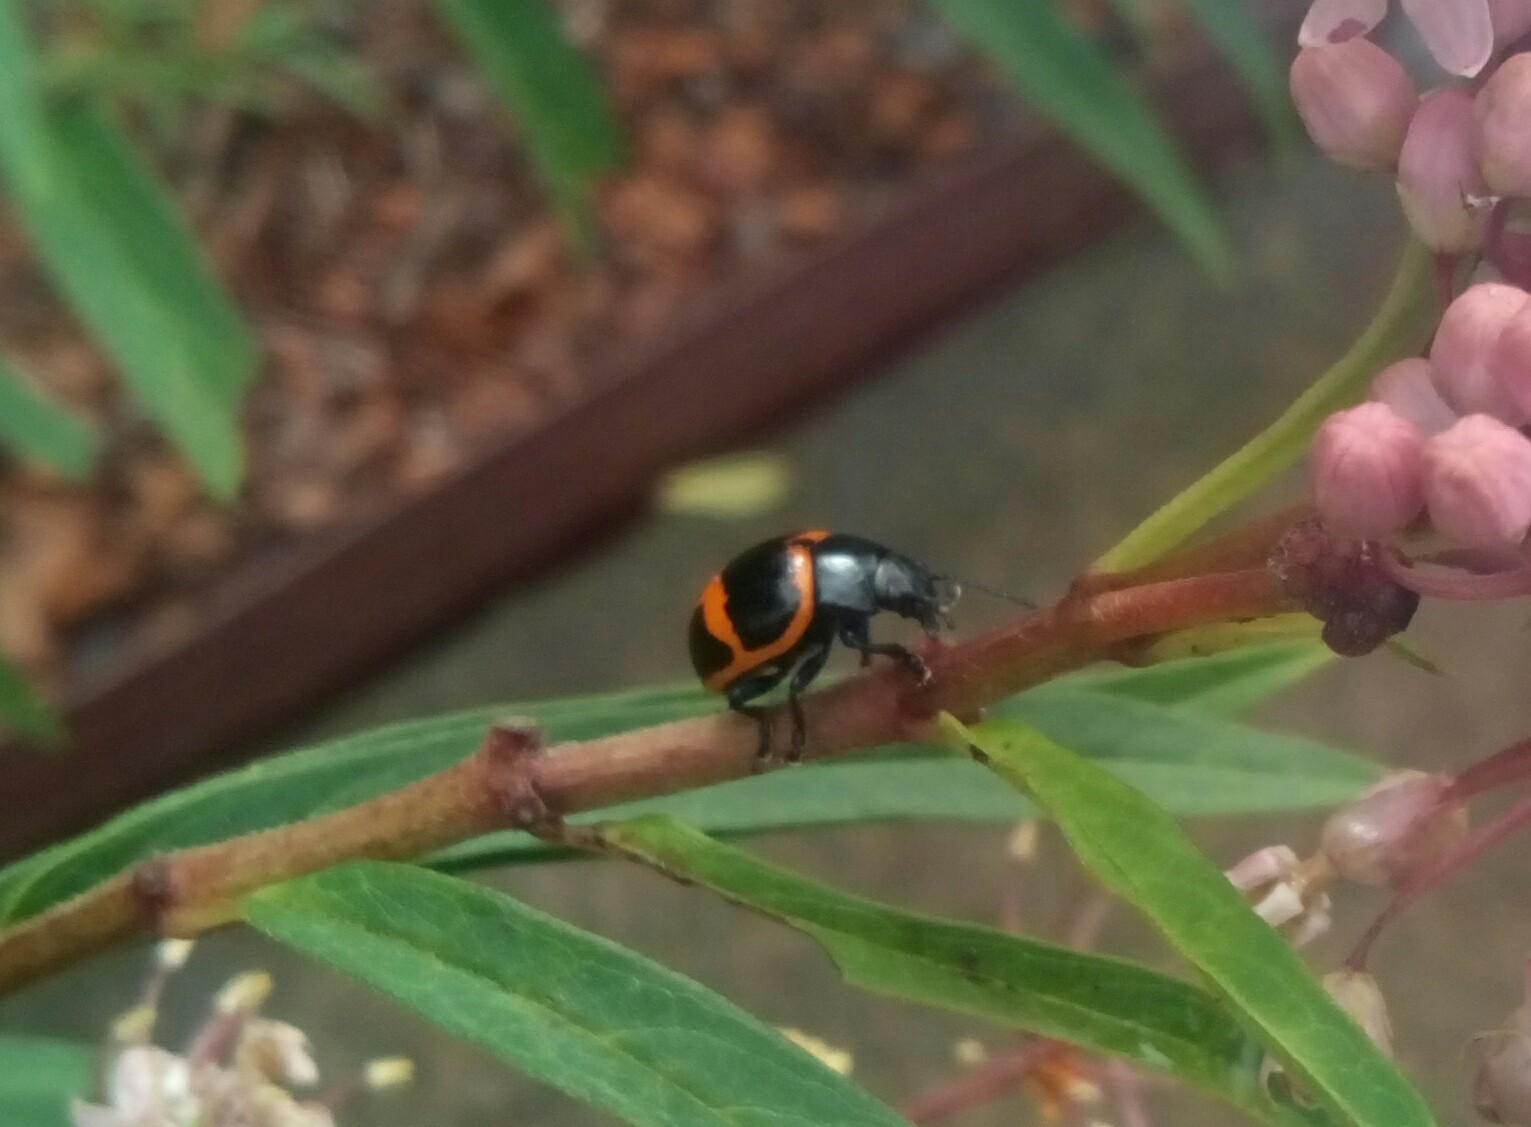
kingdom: Animalia
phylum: Arthropoda
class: Insecta
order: Coleoptera
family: Chrysomelidae
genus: Labidomera
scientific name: Labidomera clivicollis
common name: Swamp milkweed leaf beetle
